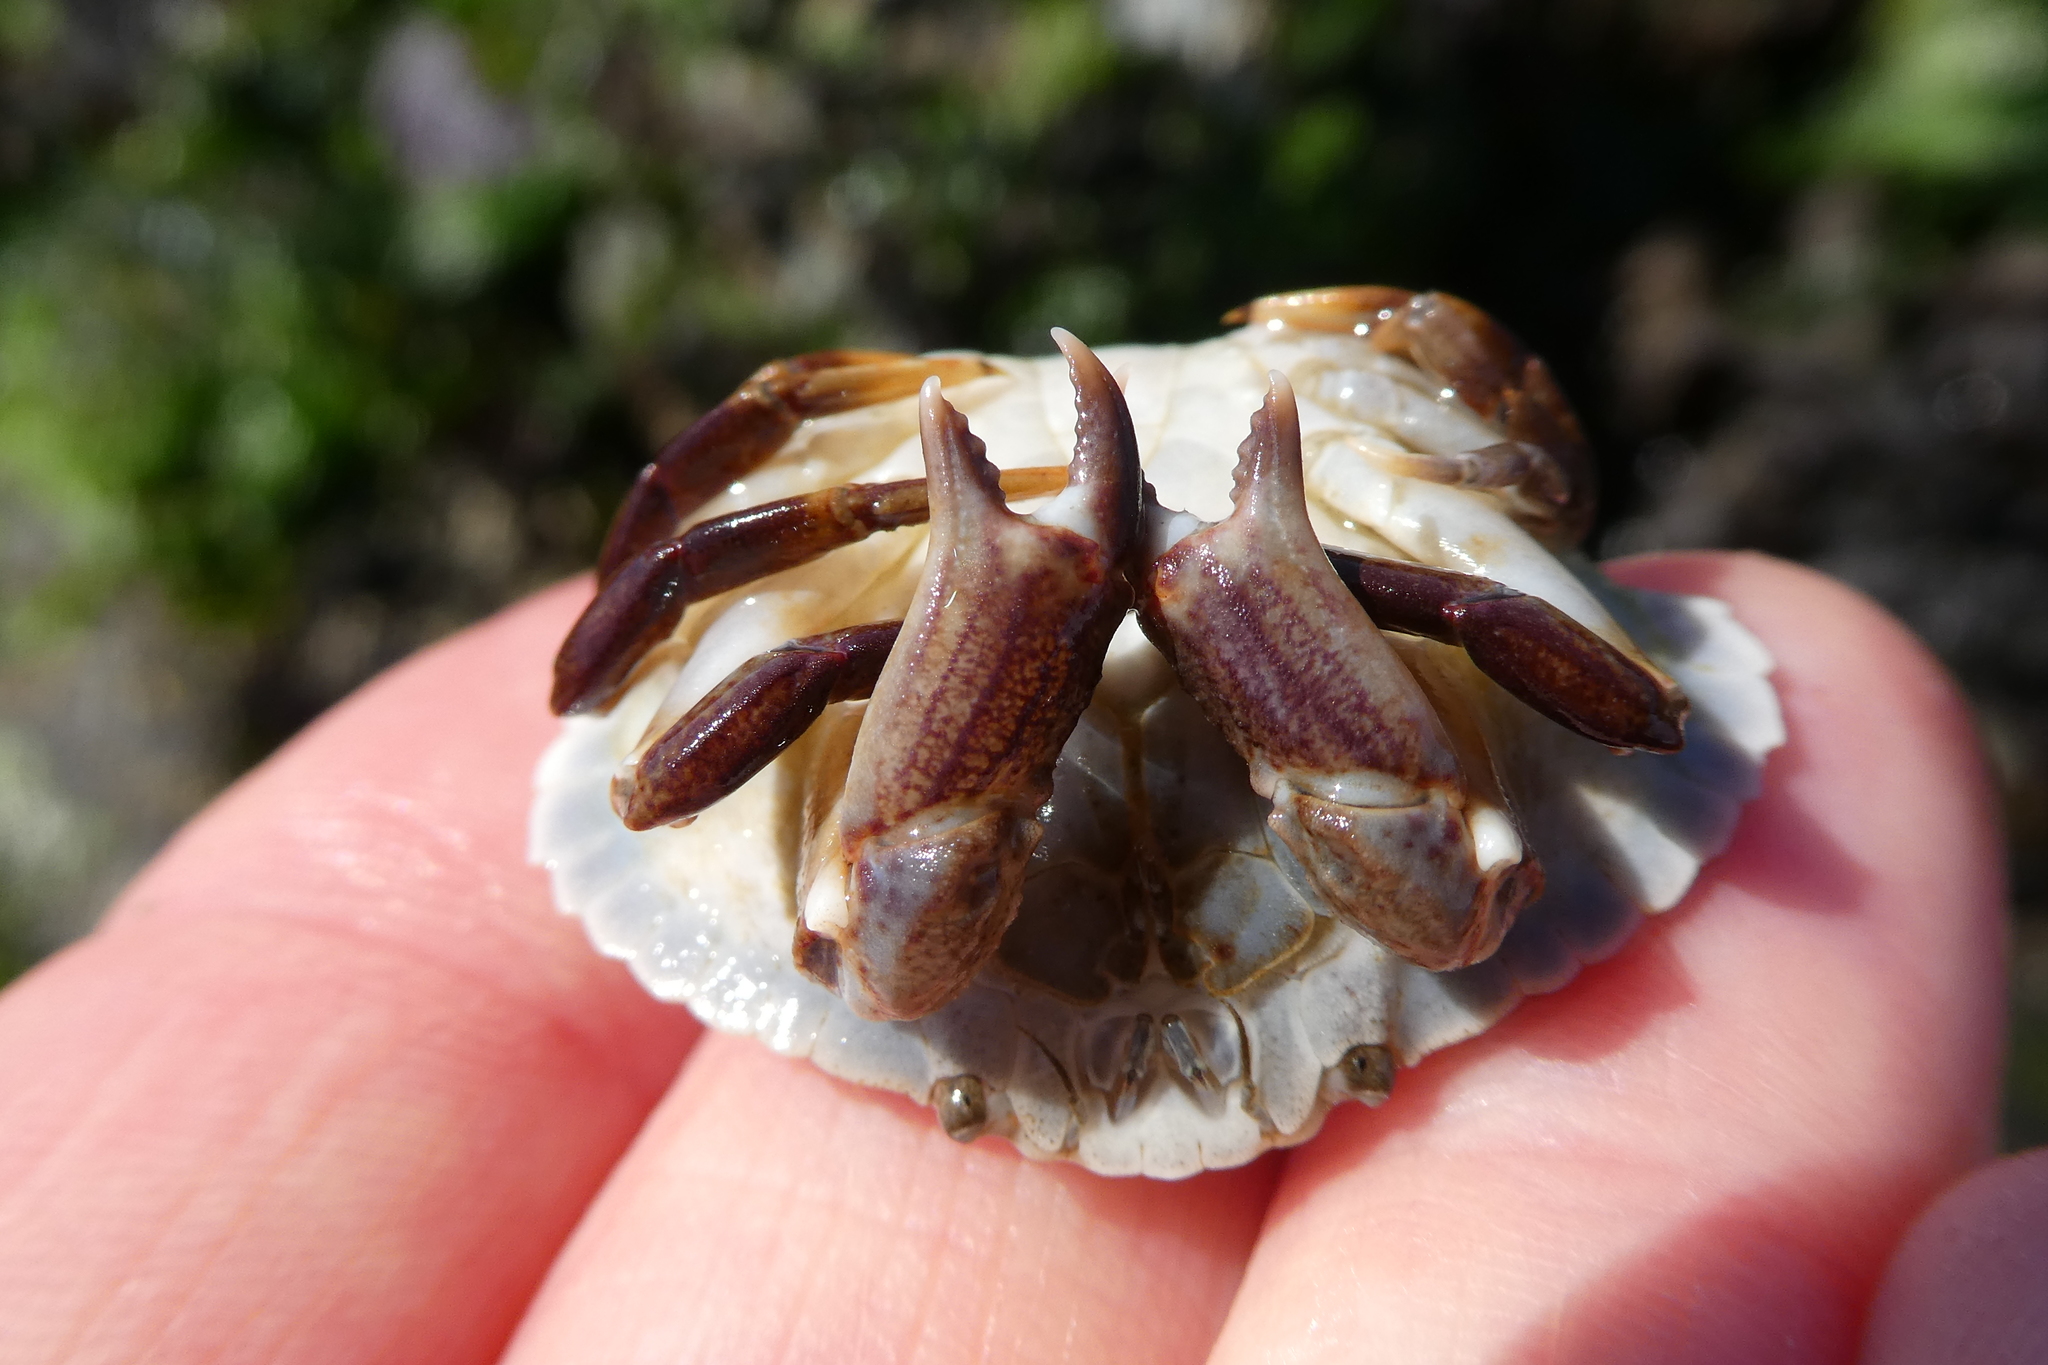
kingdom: Animalia
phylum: Arthropoda
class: Malacostraca
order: Decapoda
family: Cancridae
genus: Cancer
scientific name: Cancer productus
